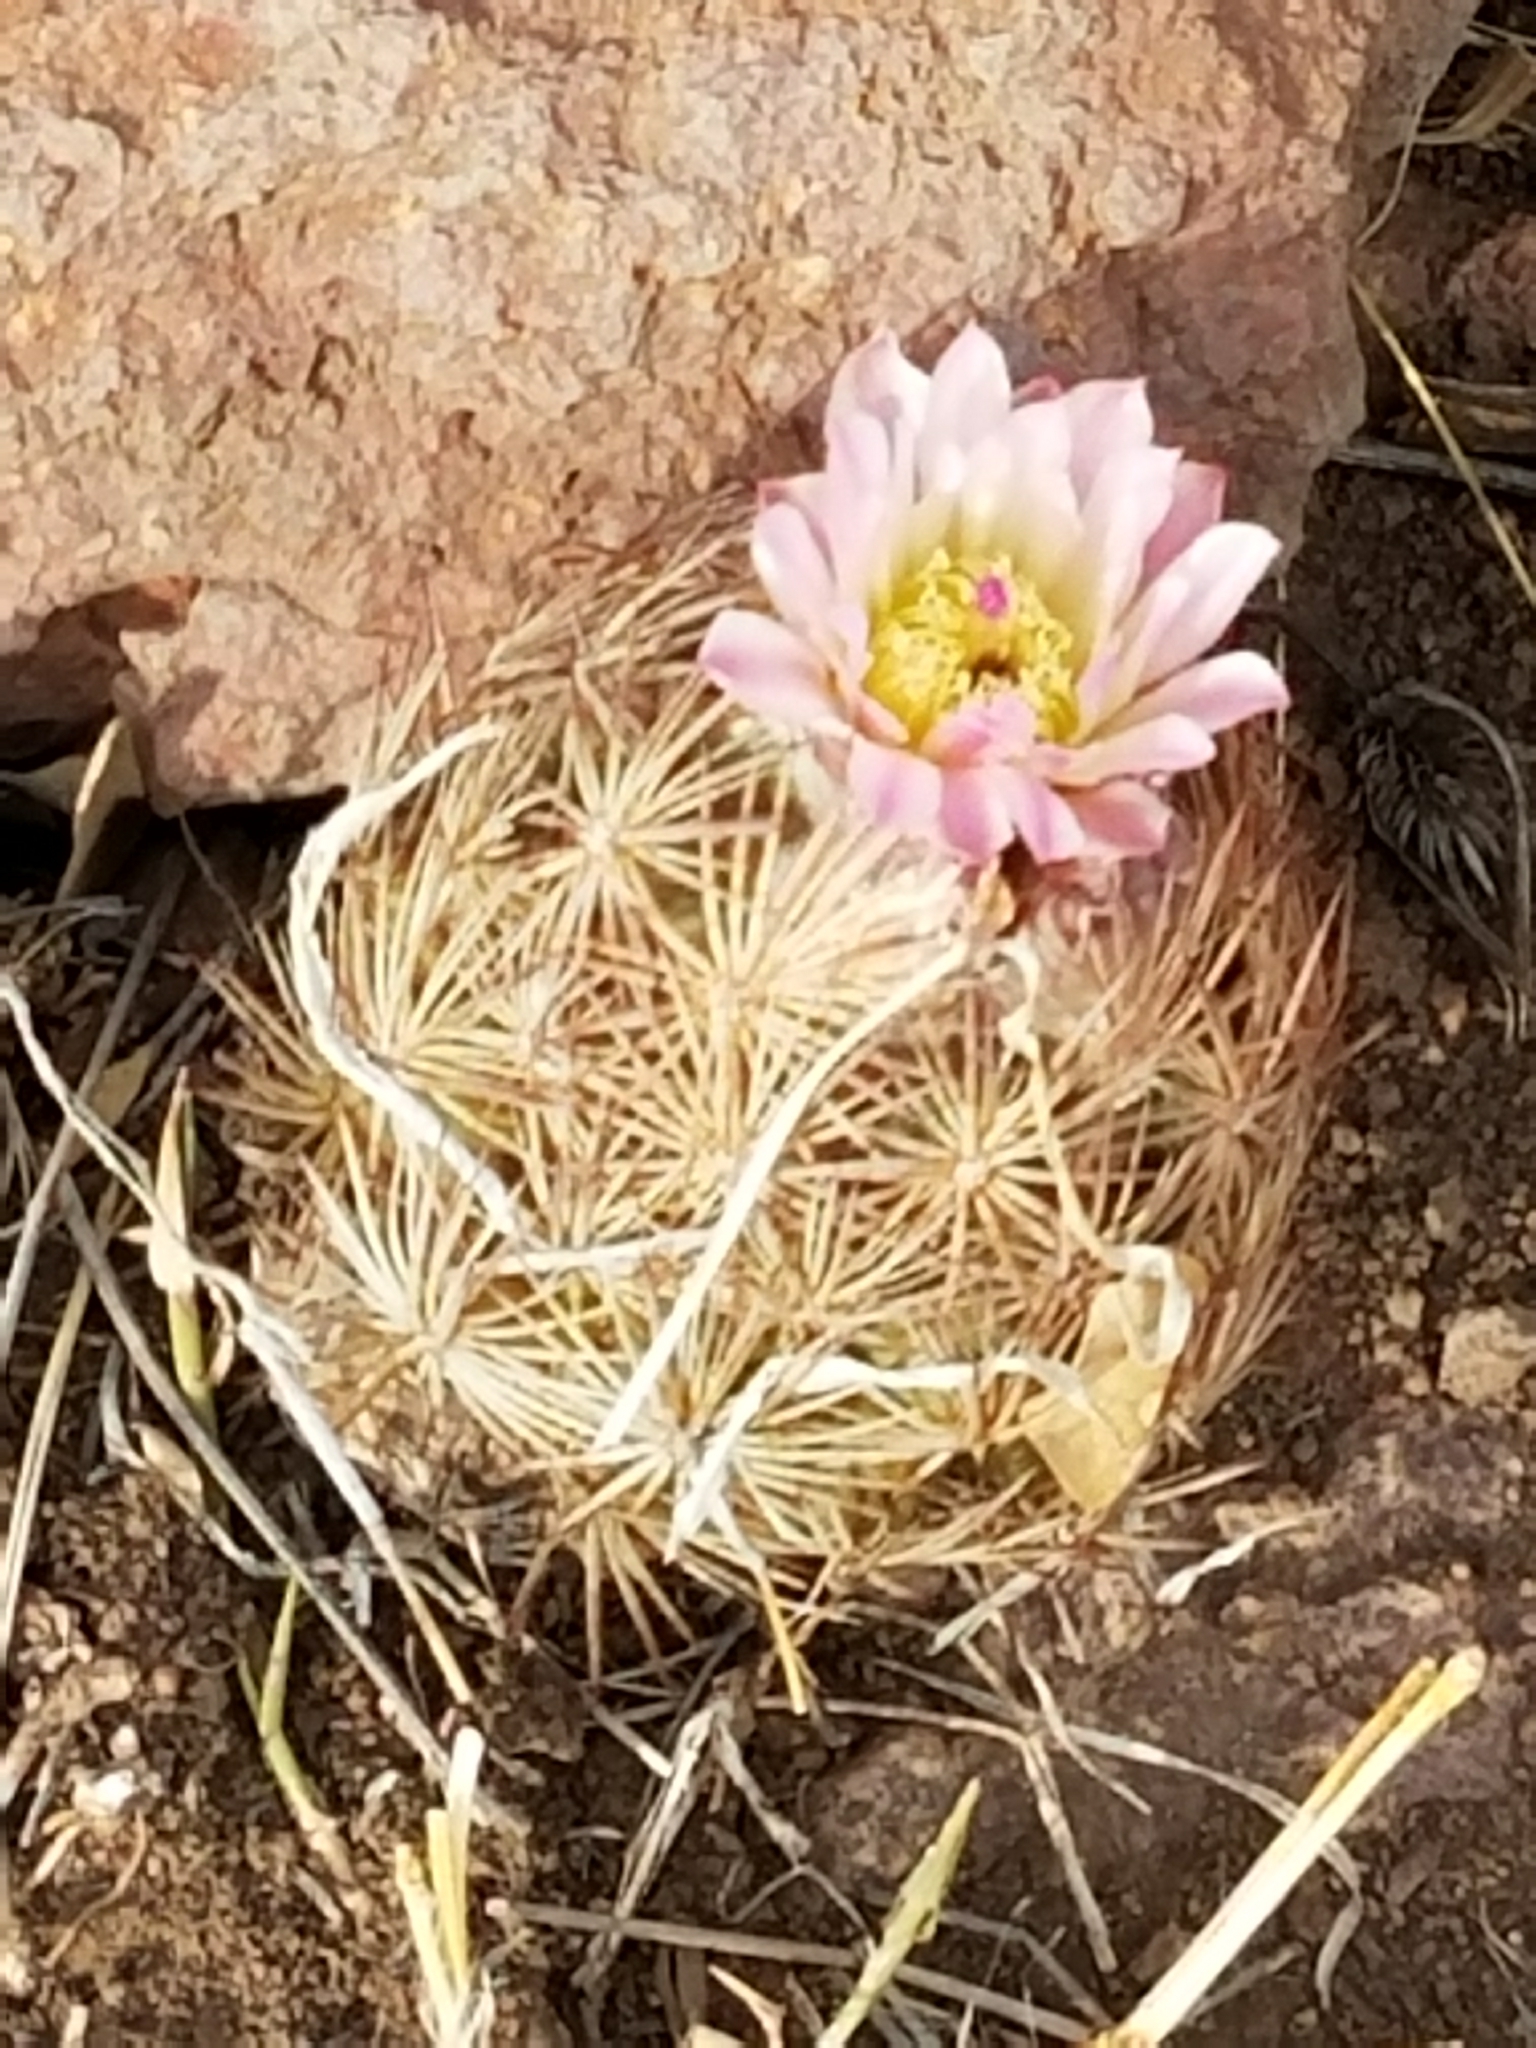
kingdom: Plantae
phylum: Tracheophyta
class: Magnoliopsida
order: Caryophyllales
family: Cactaceae
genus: Sclerocactus
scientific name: Sclerocactus intertextus
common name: White fish-hook cactus
